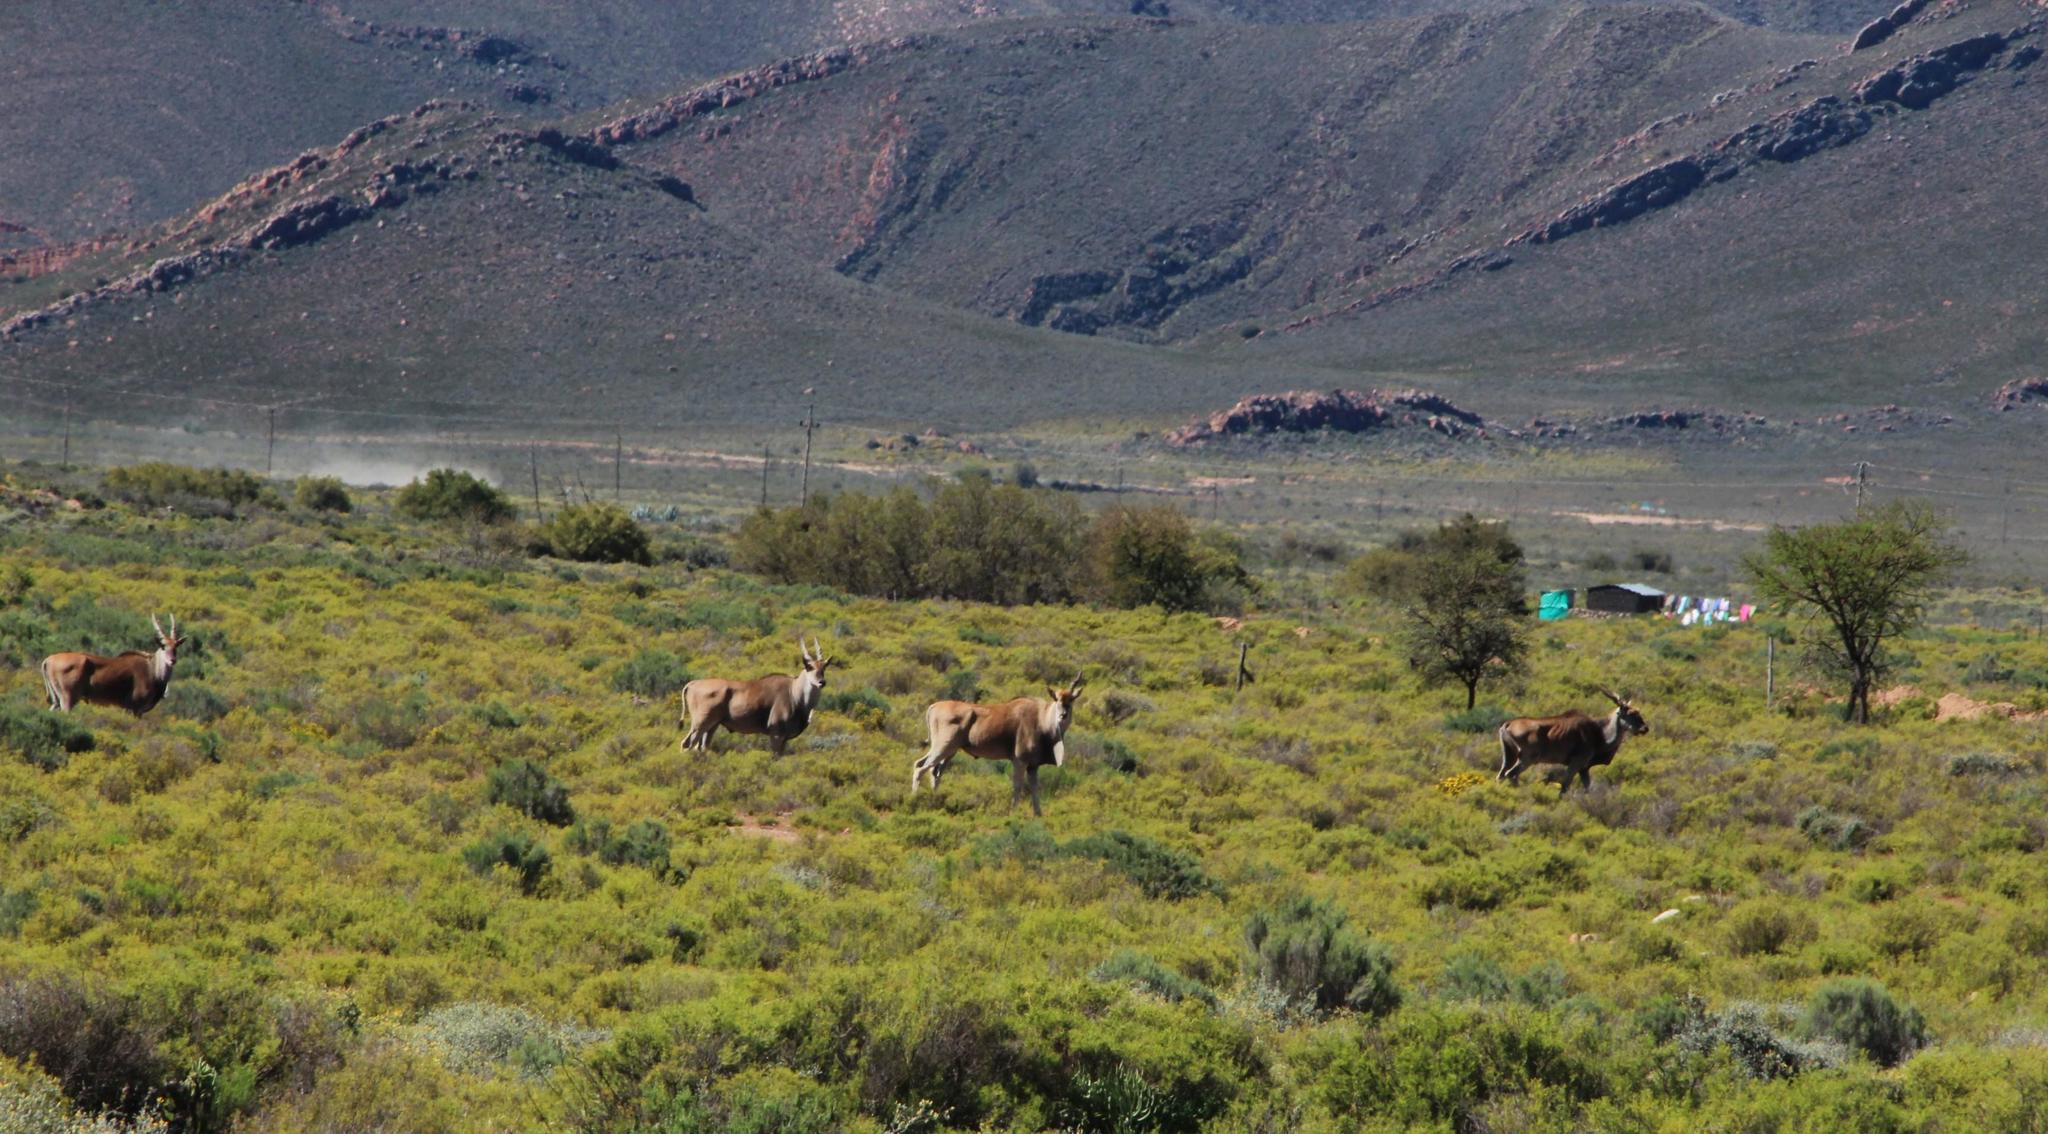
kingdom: Animalia
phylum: Chordata
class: Mammalia
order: Artiodactyla
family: Bovidae
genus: Taurotragus
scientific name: Taurotragus oryx
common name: Common eland
